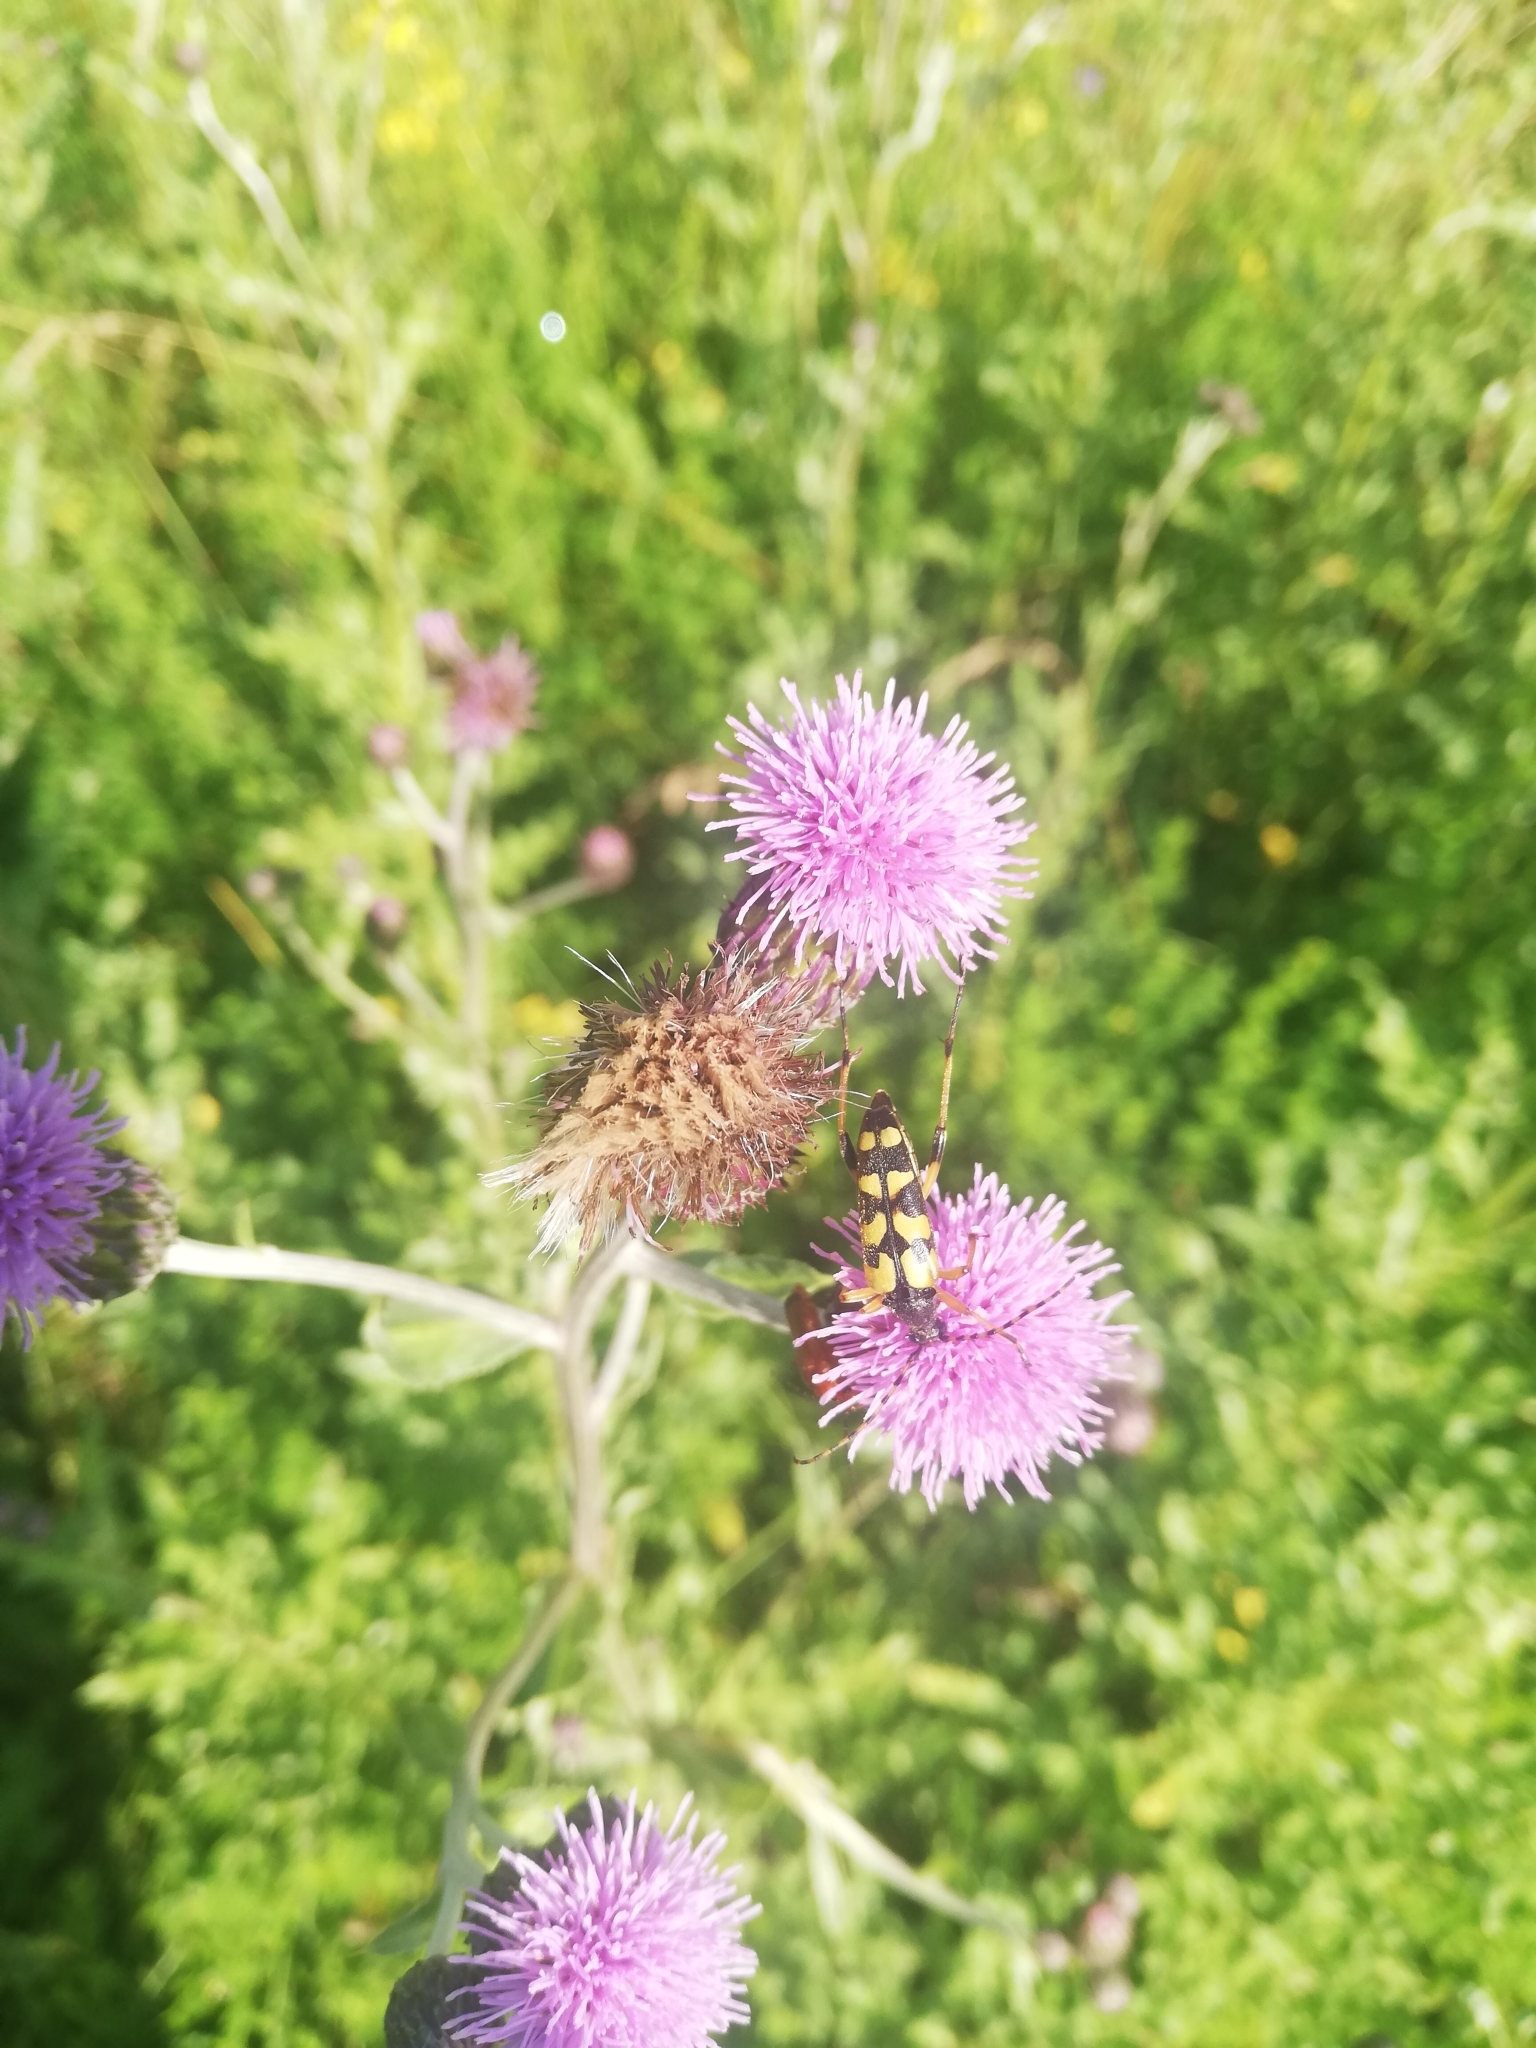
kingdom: Animalia
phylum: Arthropoda
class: Insecta
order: Coleoptera
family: Cerambycidae
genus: Rutpela
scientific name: Rutpela maculata
